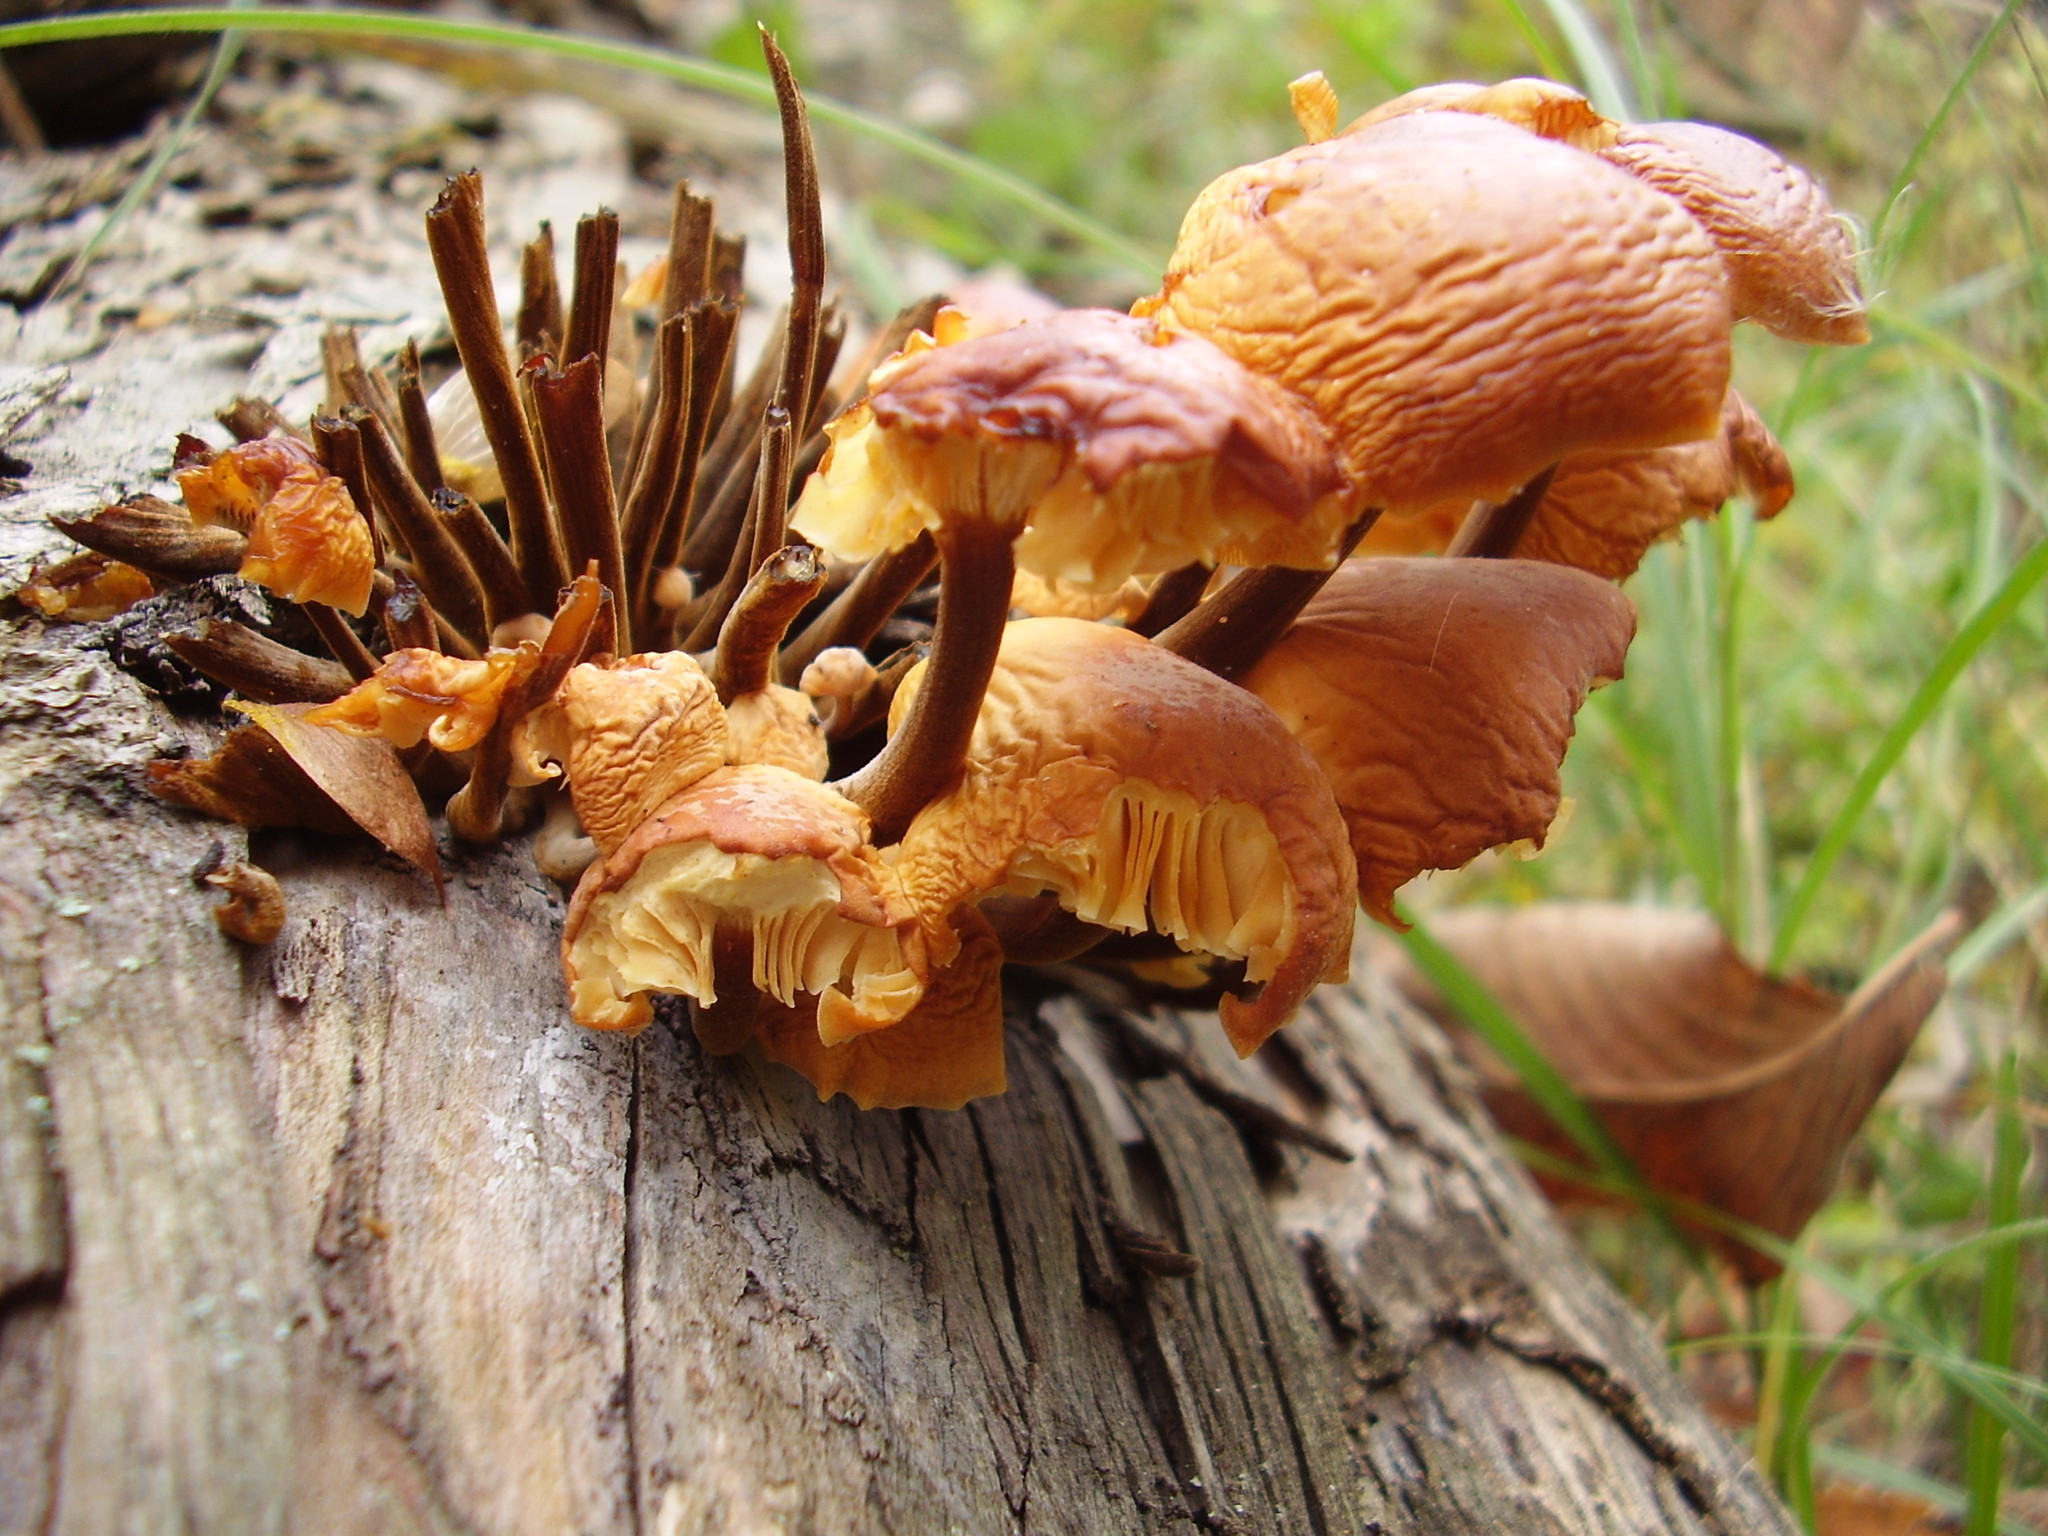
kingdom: Fungi
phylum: Basidiomycota
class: Agaricomycetes
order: Agaricales
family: Physalacriaceae
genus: Flammulina
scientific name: Flammulina
